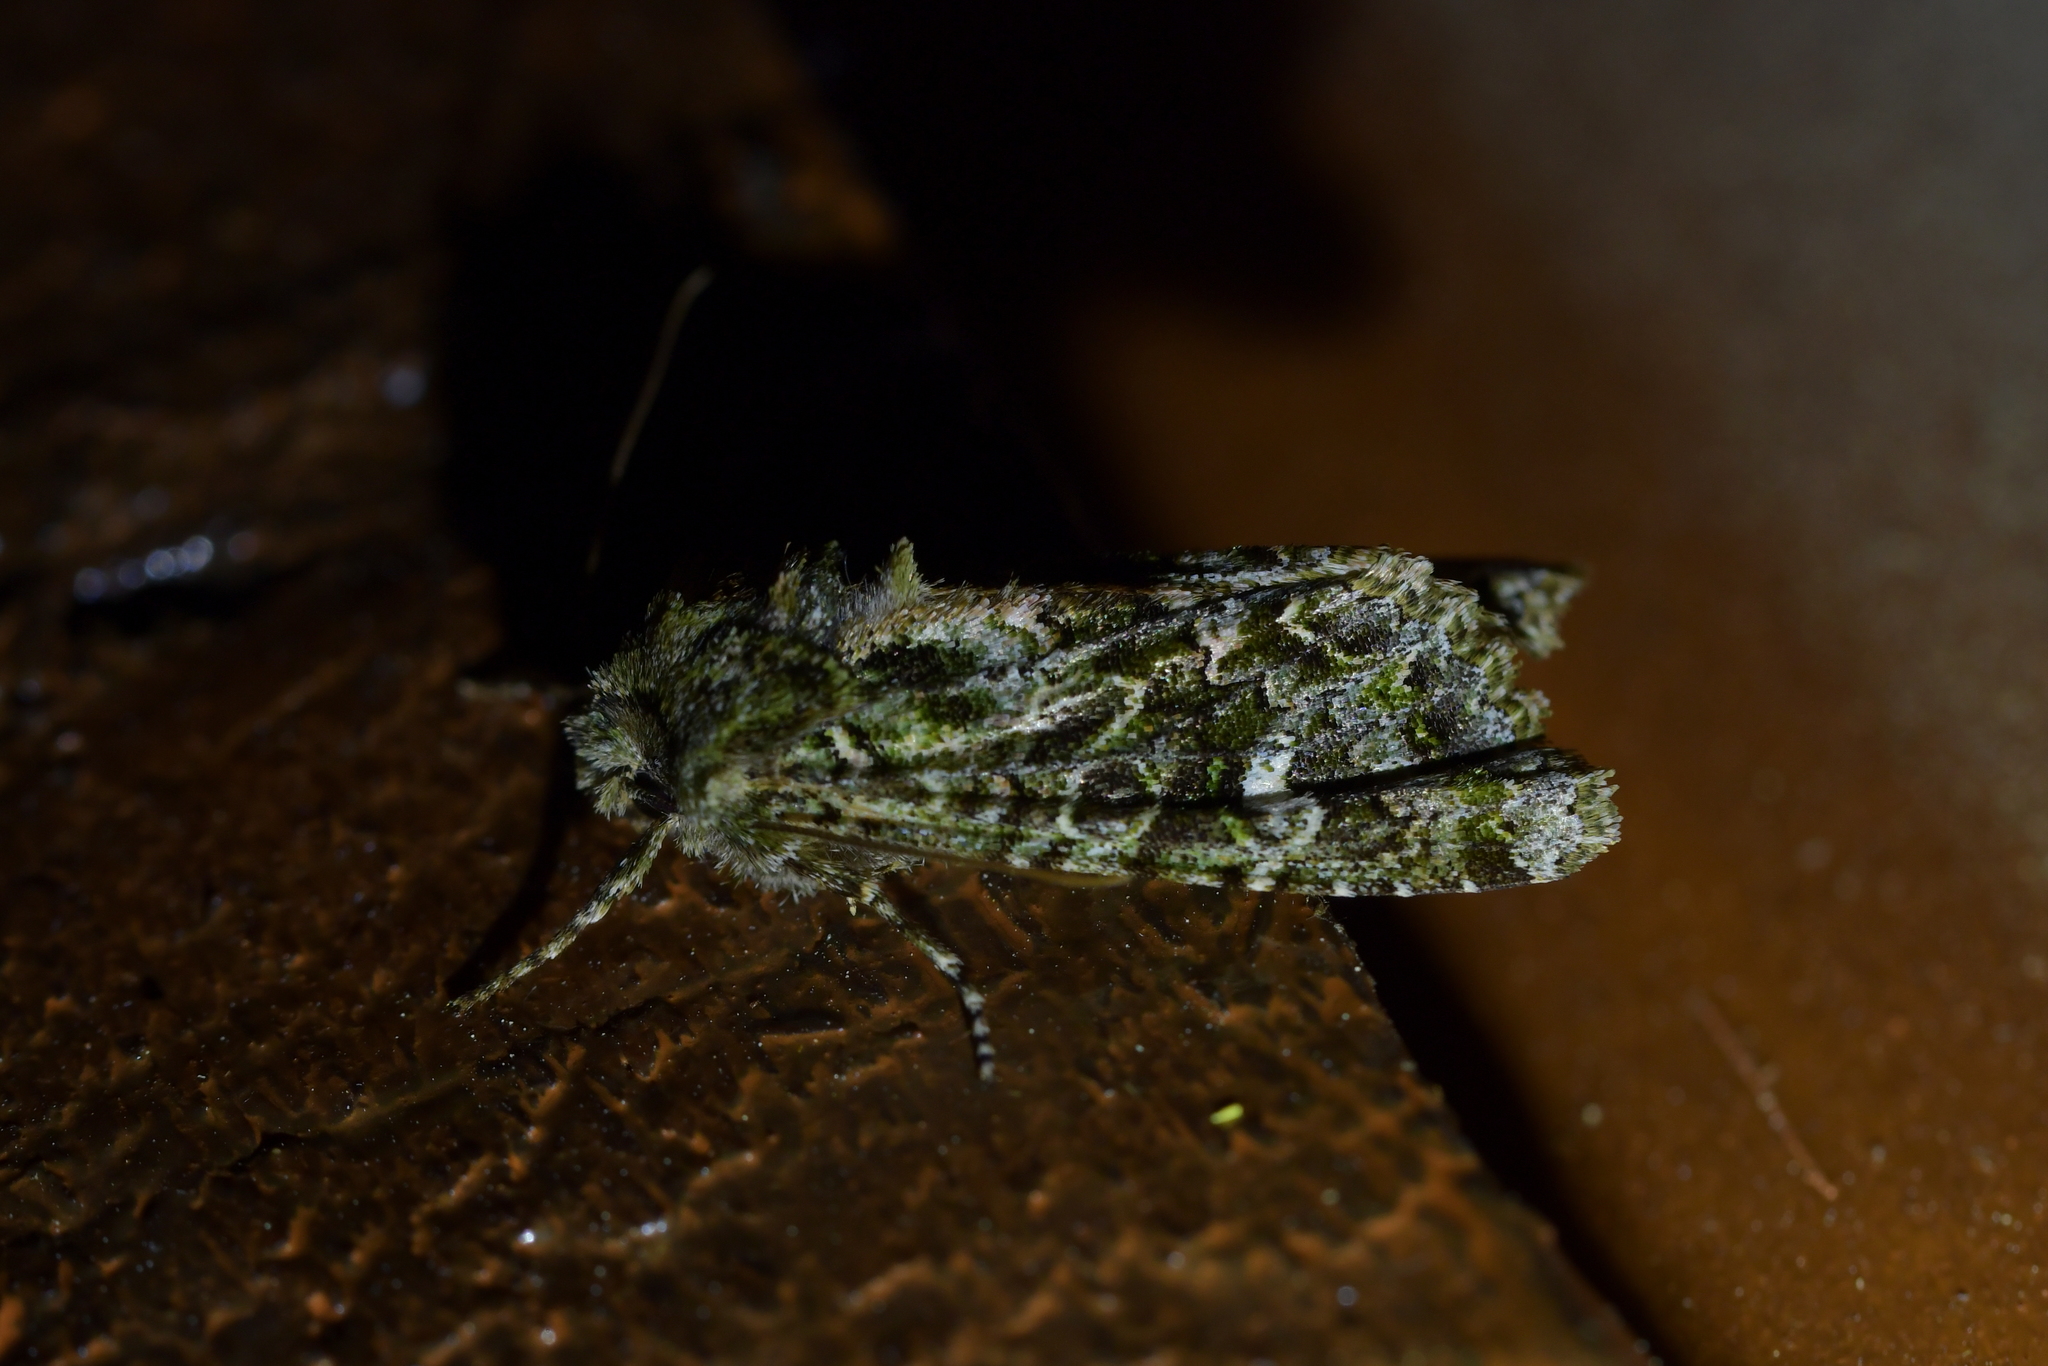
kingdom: Animalia
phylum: Arthropoda
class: Insecta
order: Lepidoptera
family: Noctuidae
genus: Ichneutica
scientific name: Ichneutica
